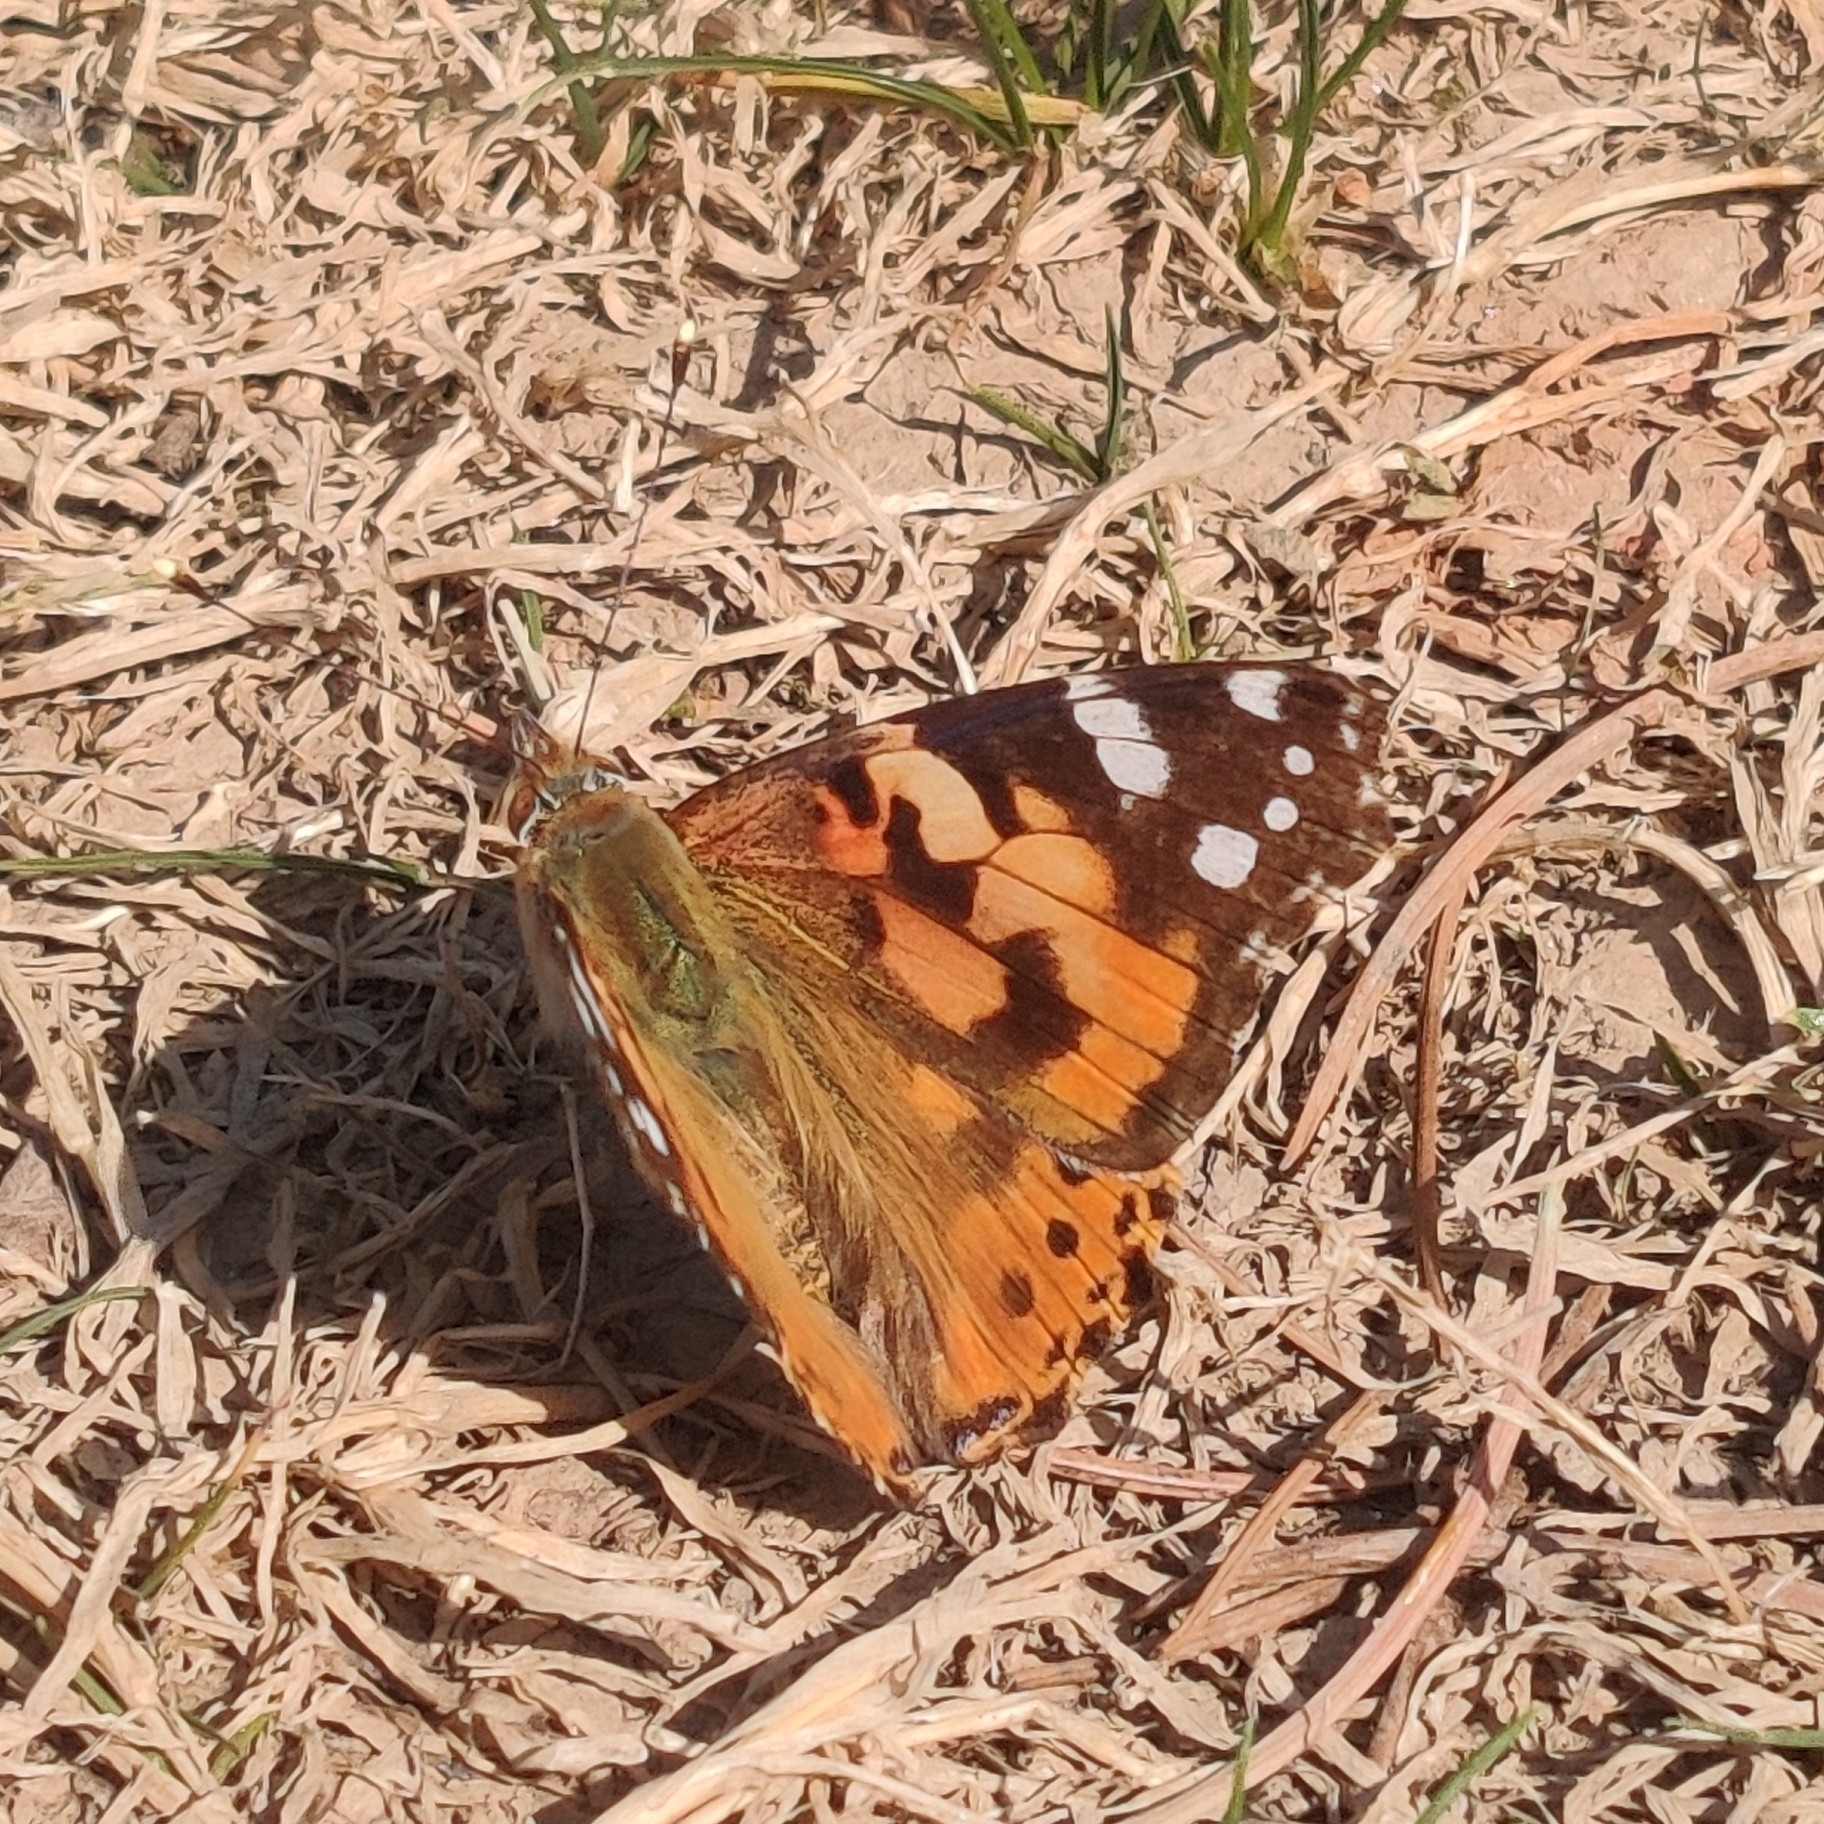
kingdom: Animalia
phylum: Arthropoda
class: Insecta
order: Lepidoptera
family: Nymphalidae
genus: Vanessa
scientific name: Vanessa cardui
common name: Painted lady
